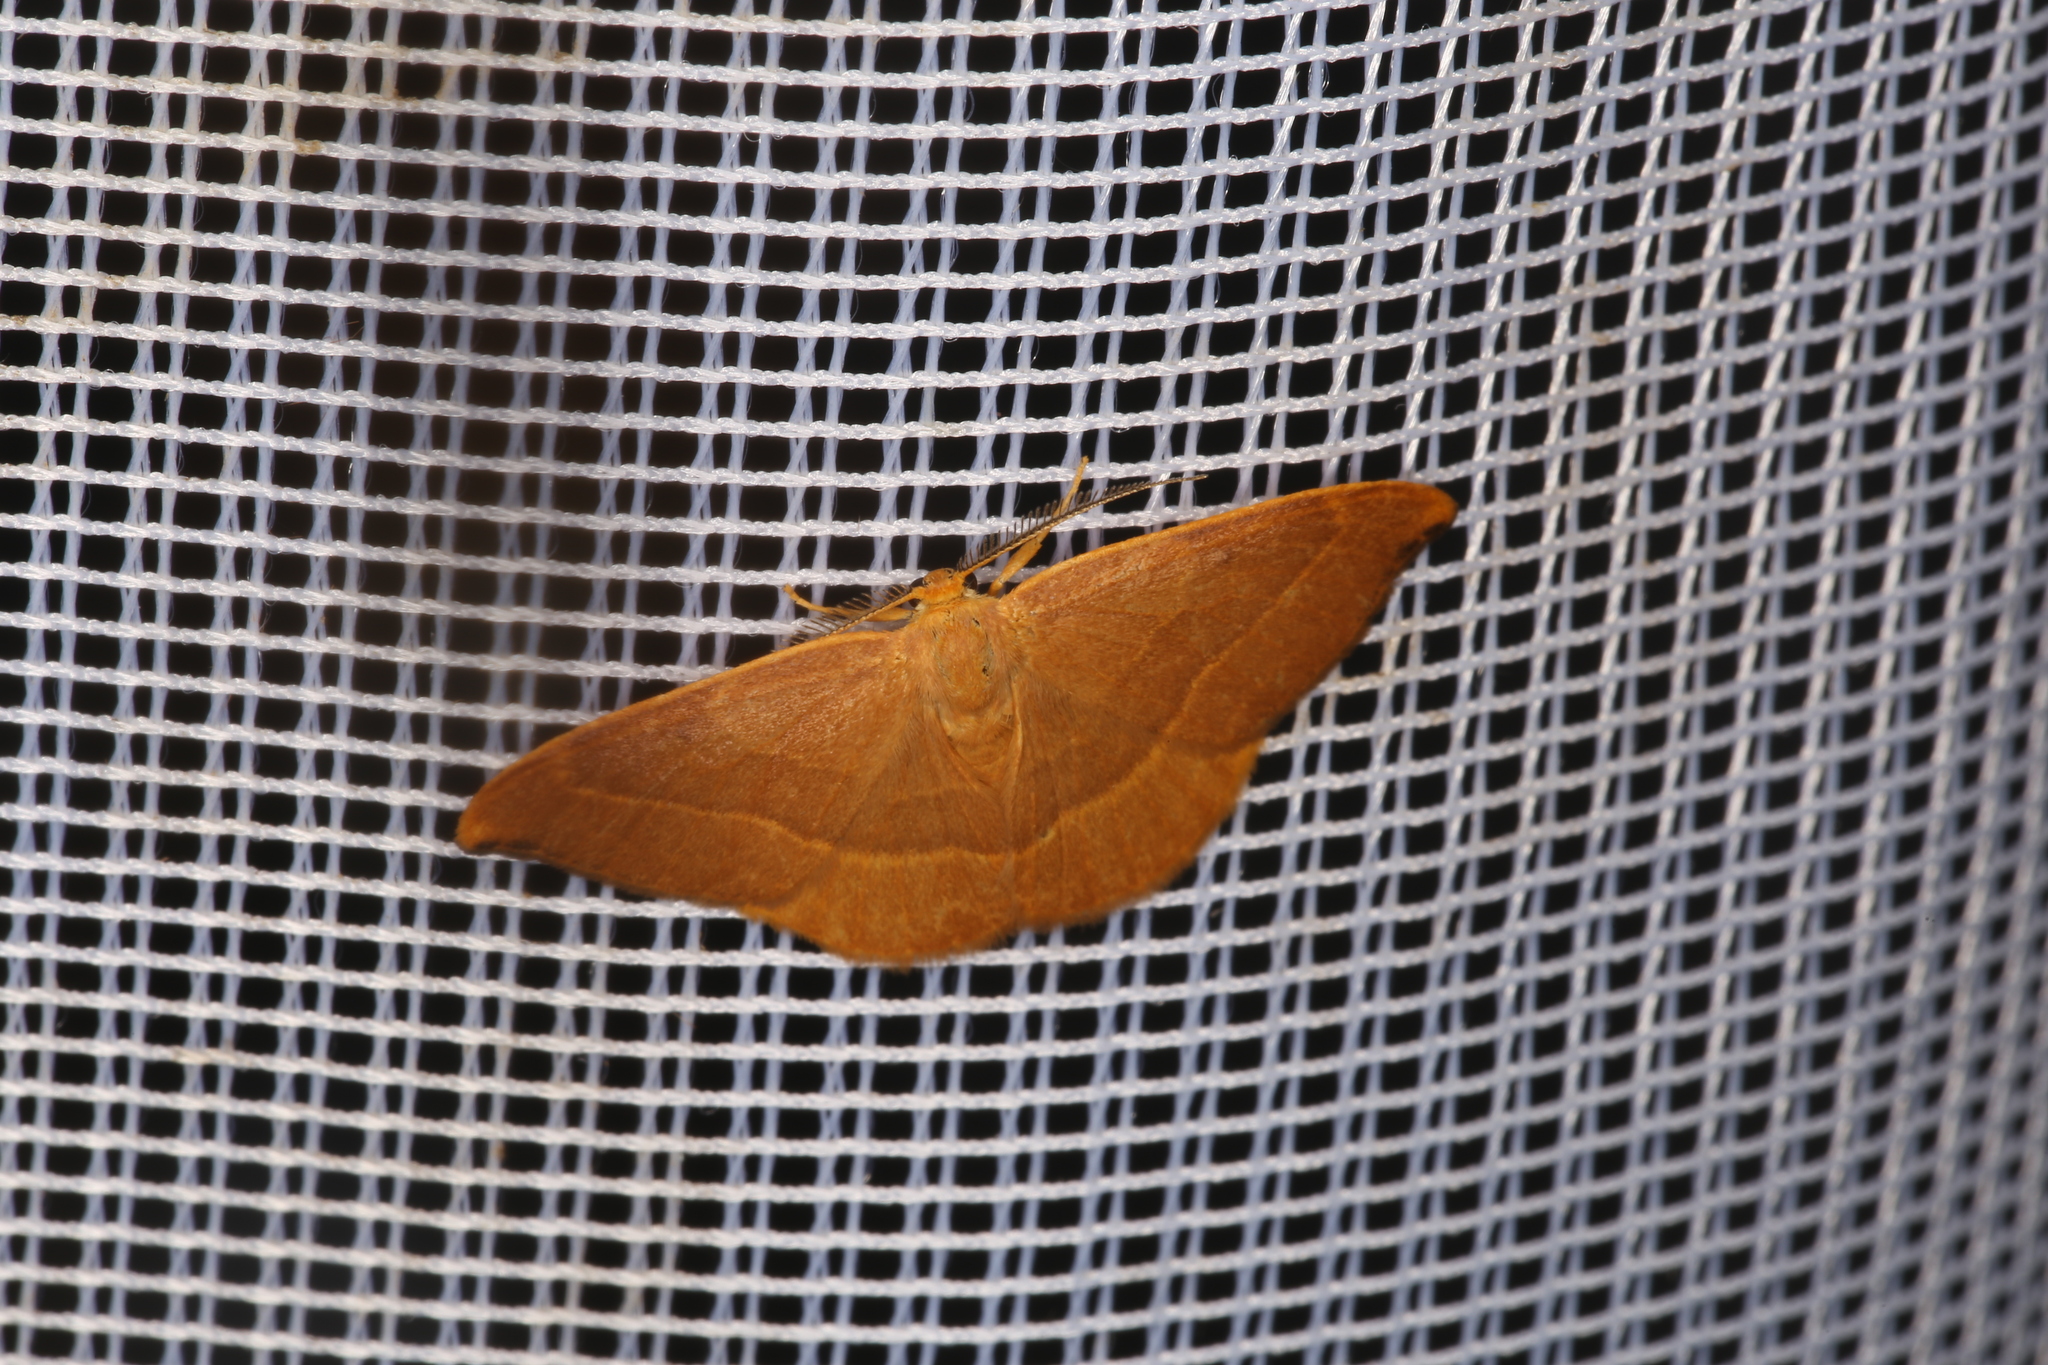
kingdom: Animalia
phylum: Arthropoda
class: Insecta
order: Lepidoptera
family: Drepanidae
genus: Watsonalla
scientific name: Watsonalla cultraria
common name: Barred hook-tip
